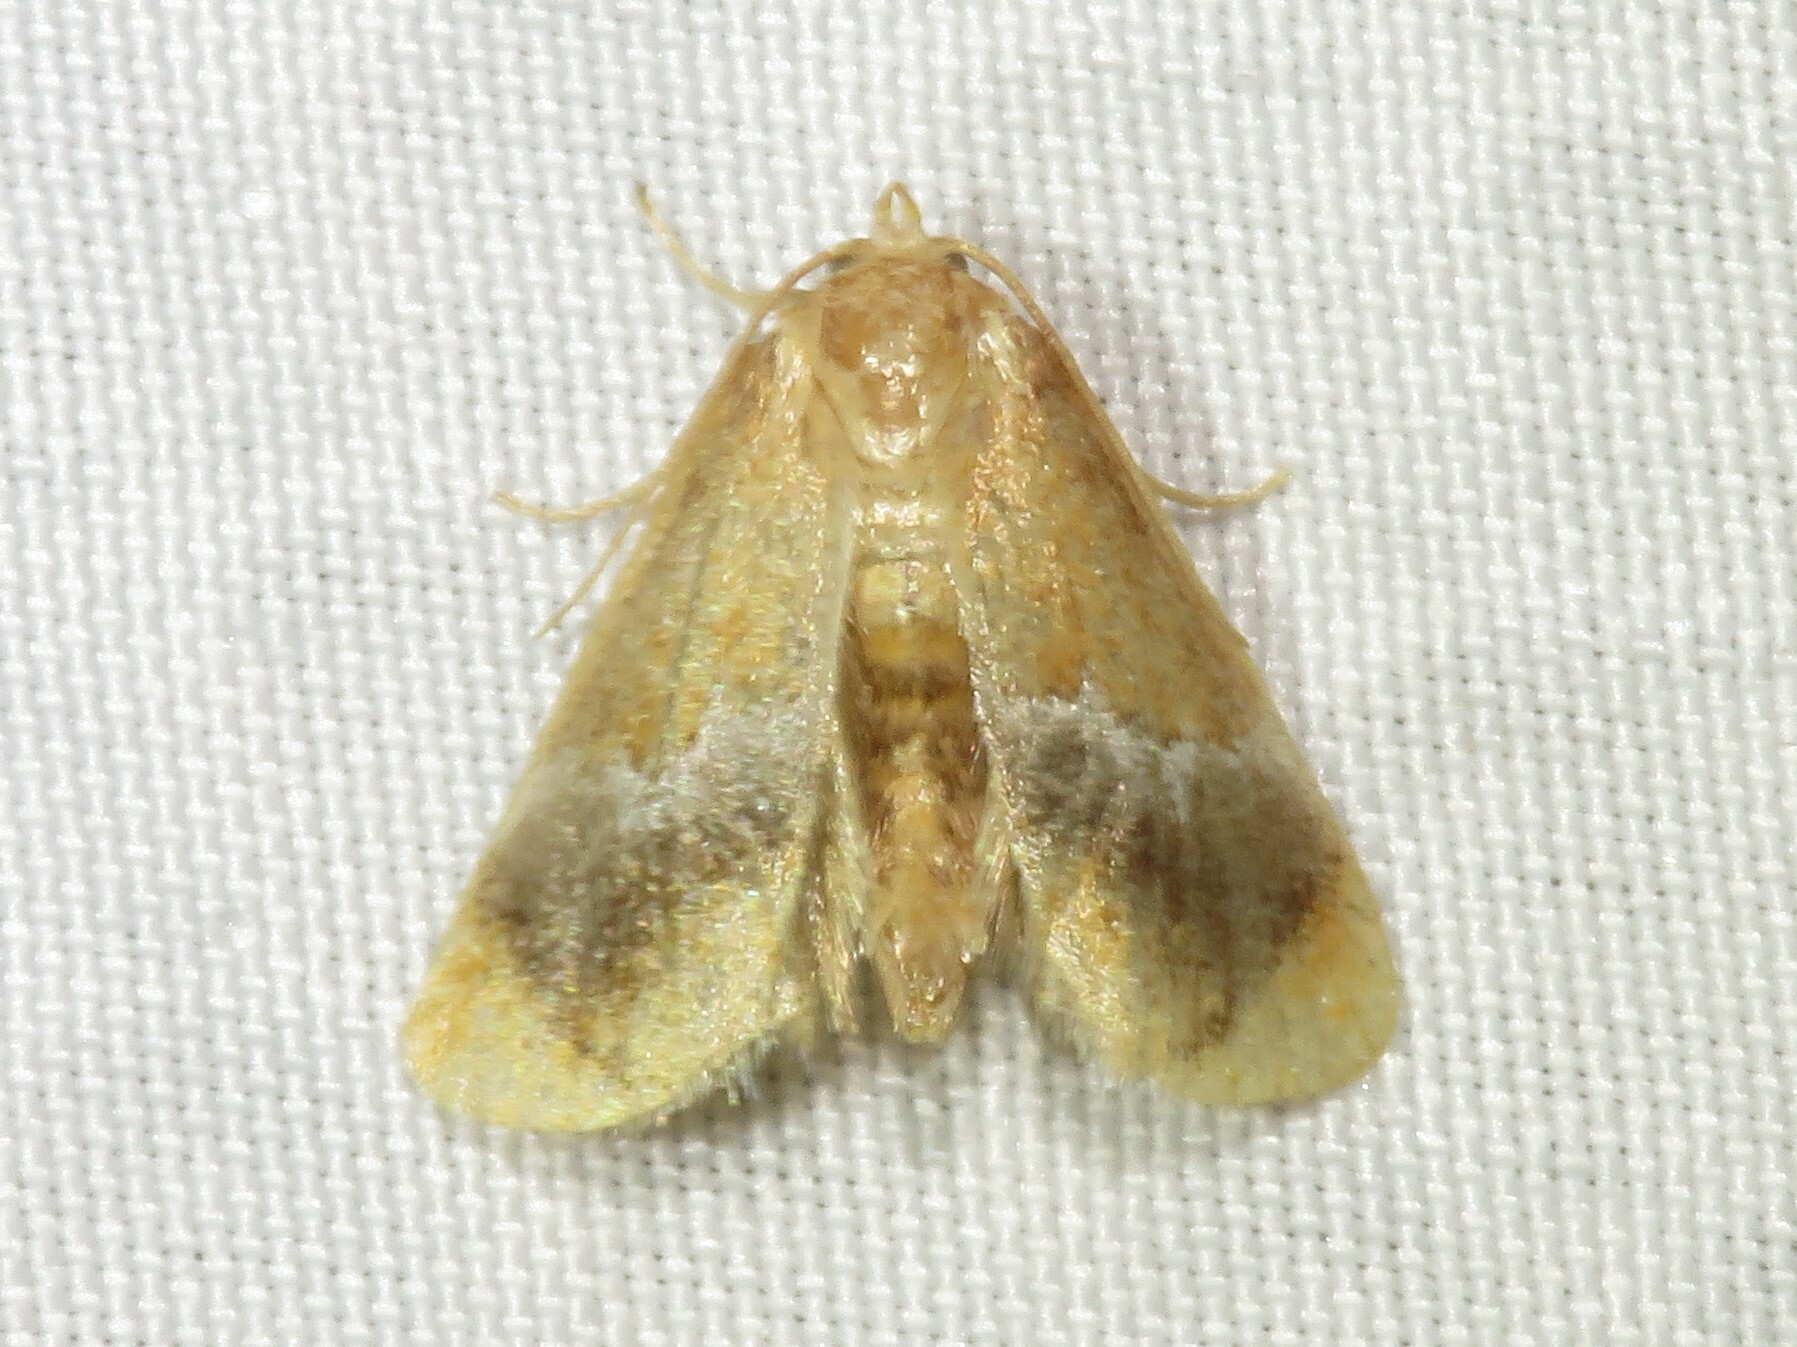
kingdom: Animalia
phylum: Arthropoda
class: Insecta
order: Lepidoptera
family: Limacodidae
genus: Lithacodes
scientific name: Lithacodes fasciola
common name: Yellow-shouldered slug moth
